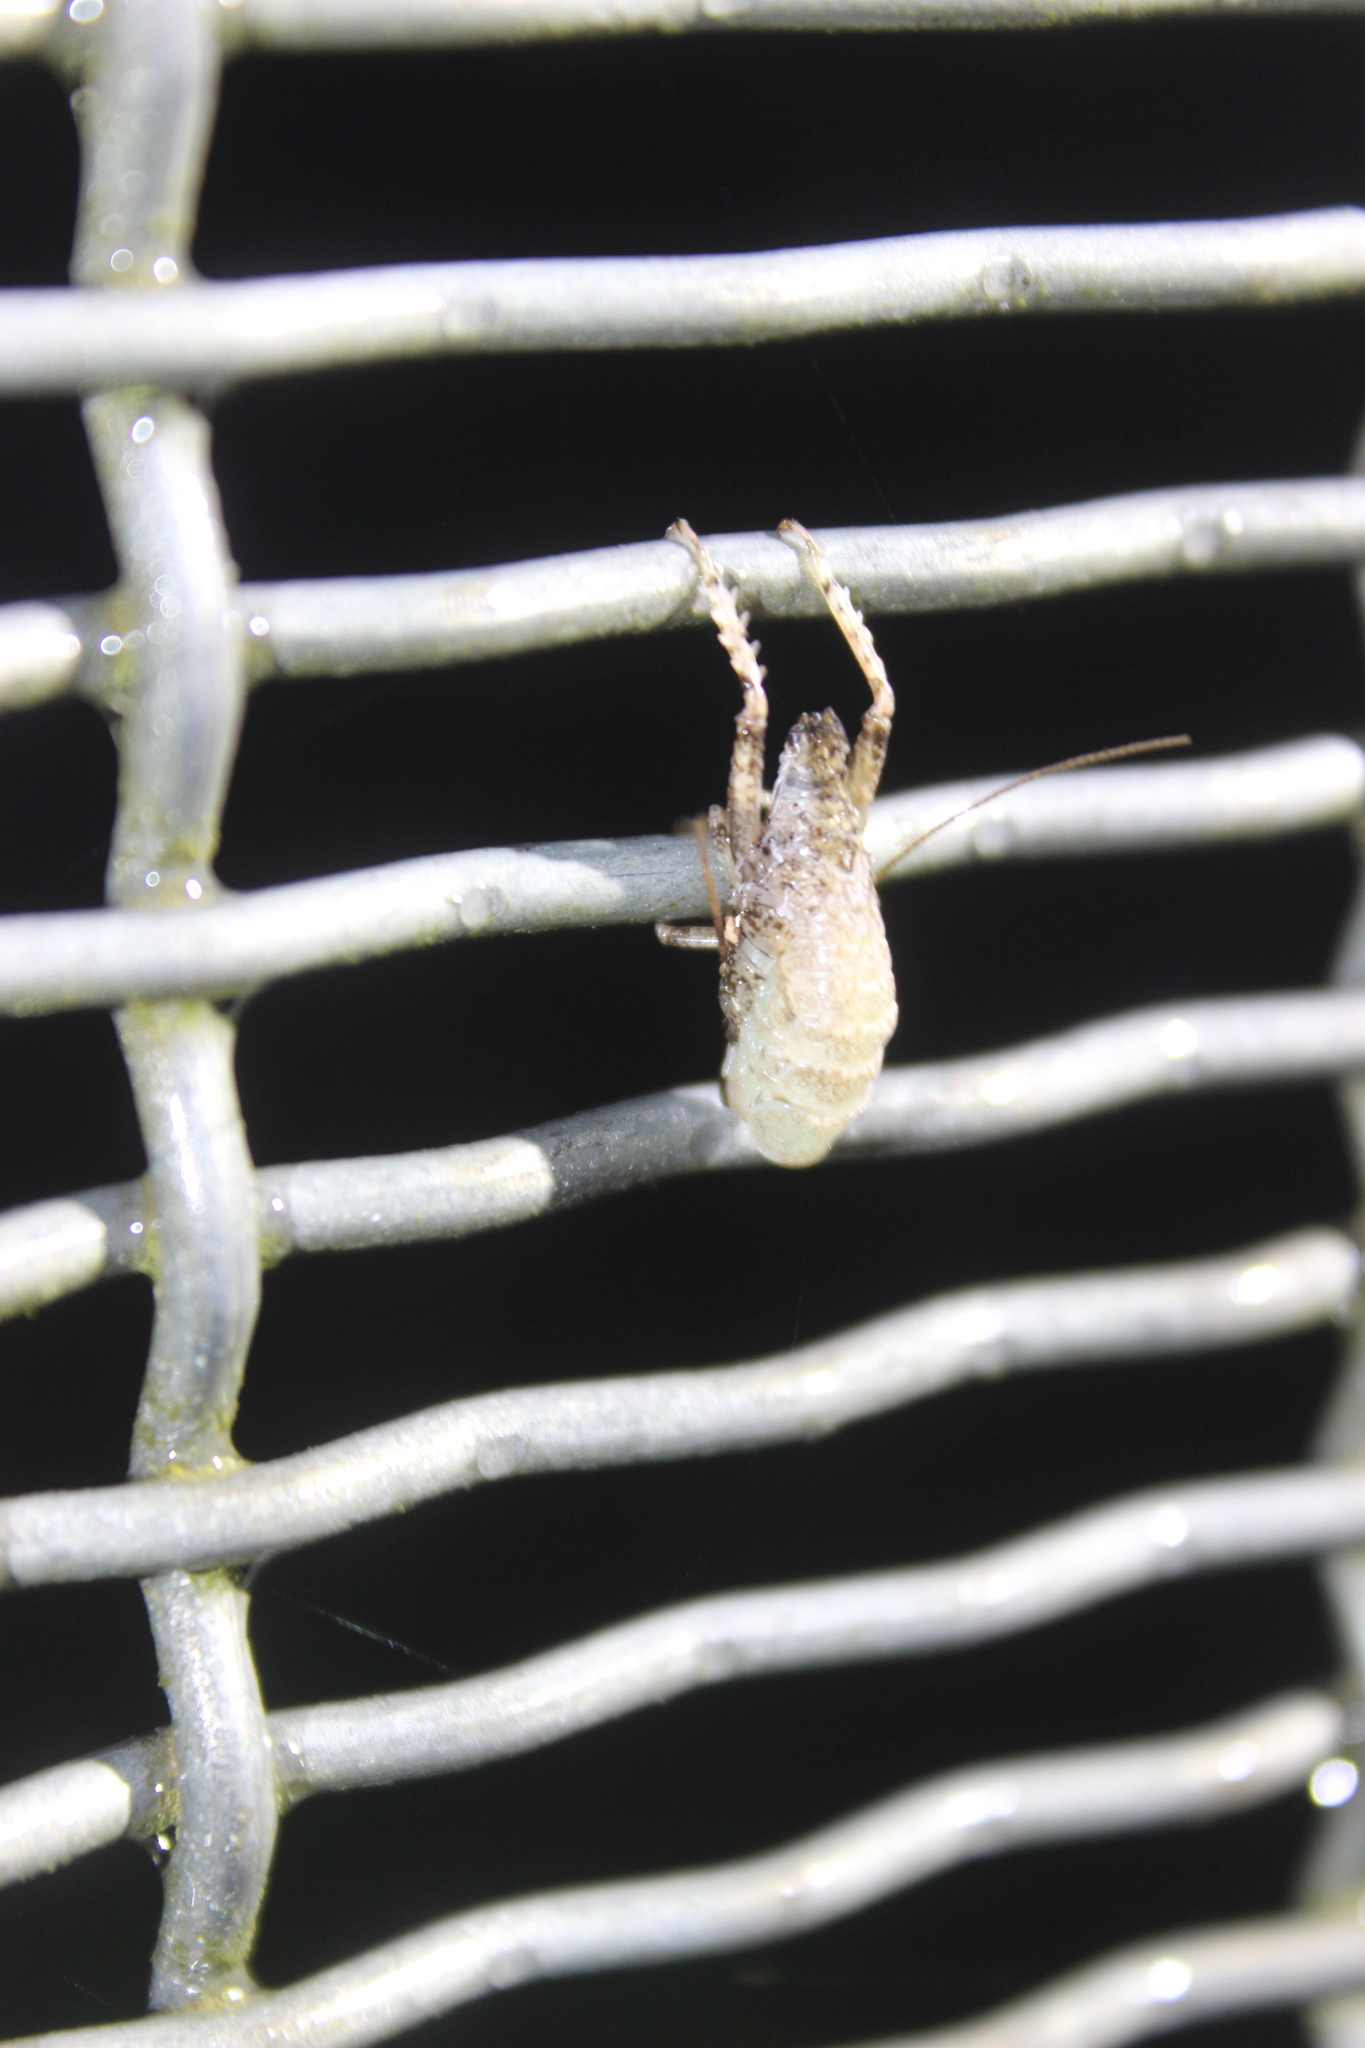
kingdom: Animalia
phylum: Arthropoda
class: Insecta
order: Orthoptera
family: Anostostomatidae
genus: Deinacrida
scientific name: Deinacrida rugosa
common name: Stephens island weta
